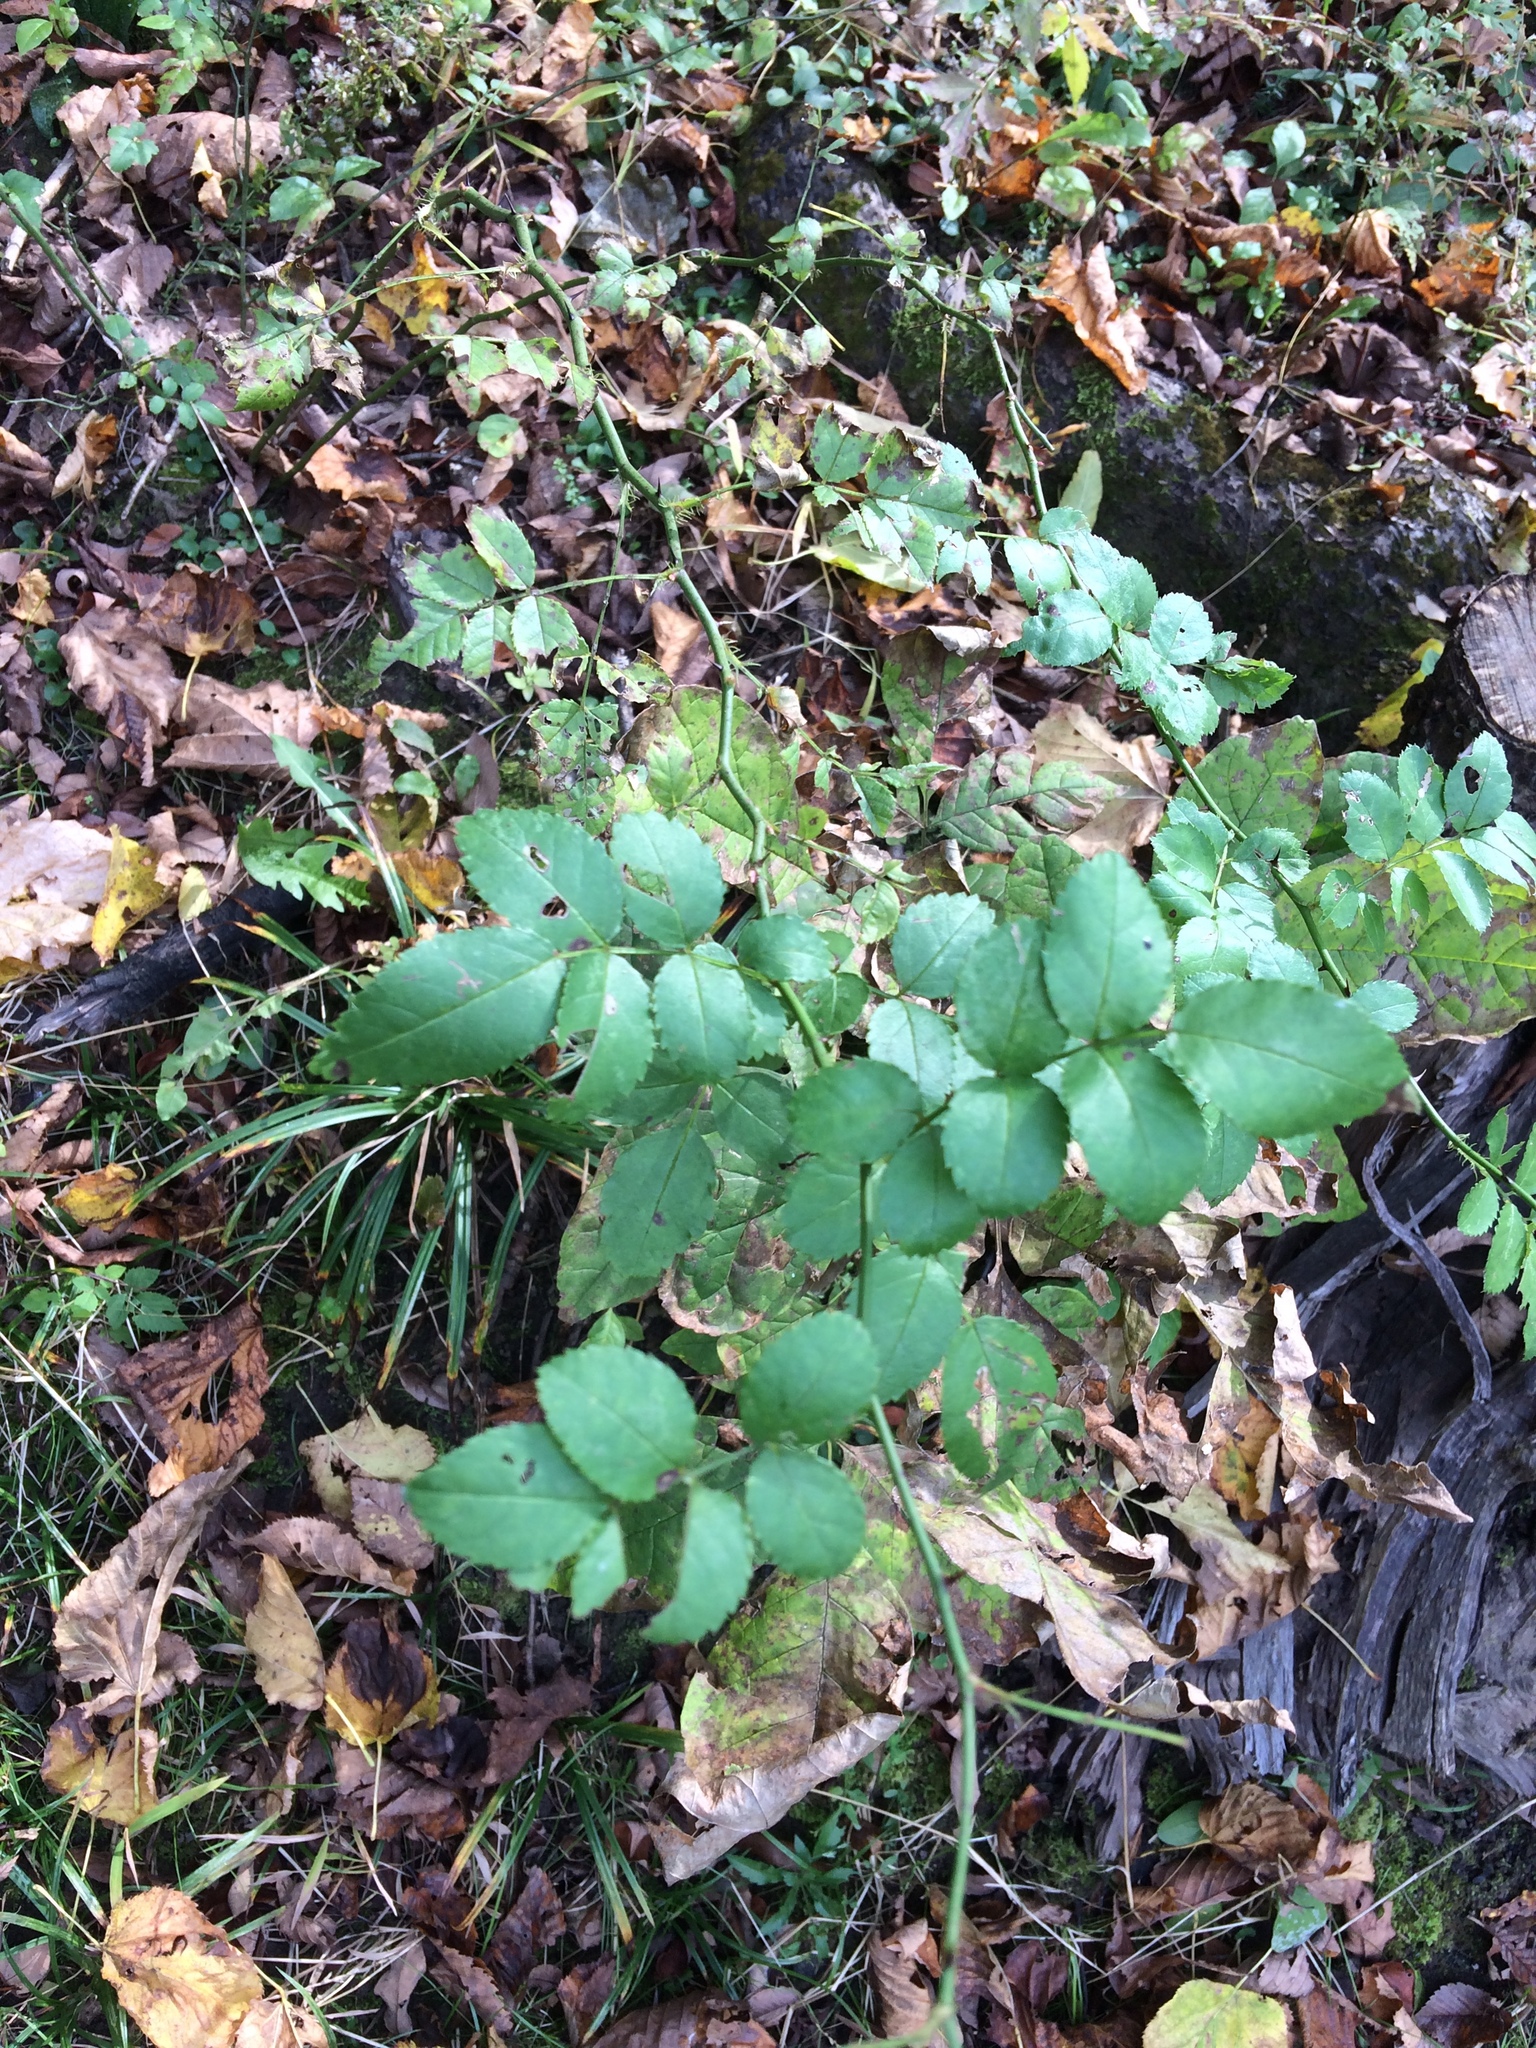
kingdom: Plantae
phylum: Tracheophyta
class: Magnoliopsida
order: Rosales
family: Rosaceae
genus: Rosa
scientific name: Rosa multiflora
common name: Multiflora rose
